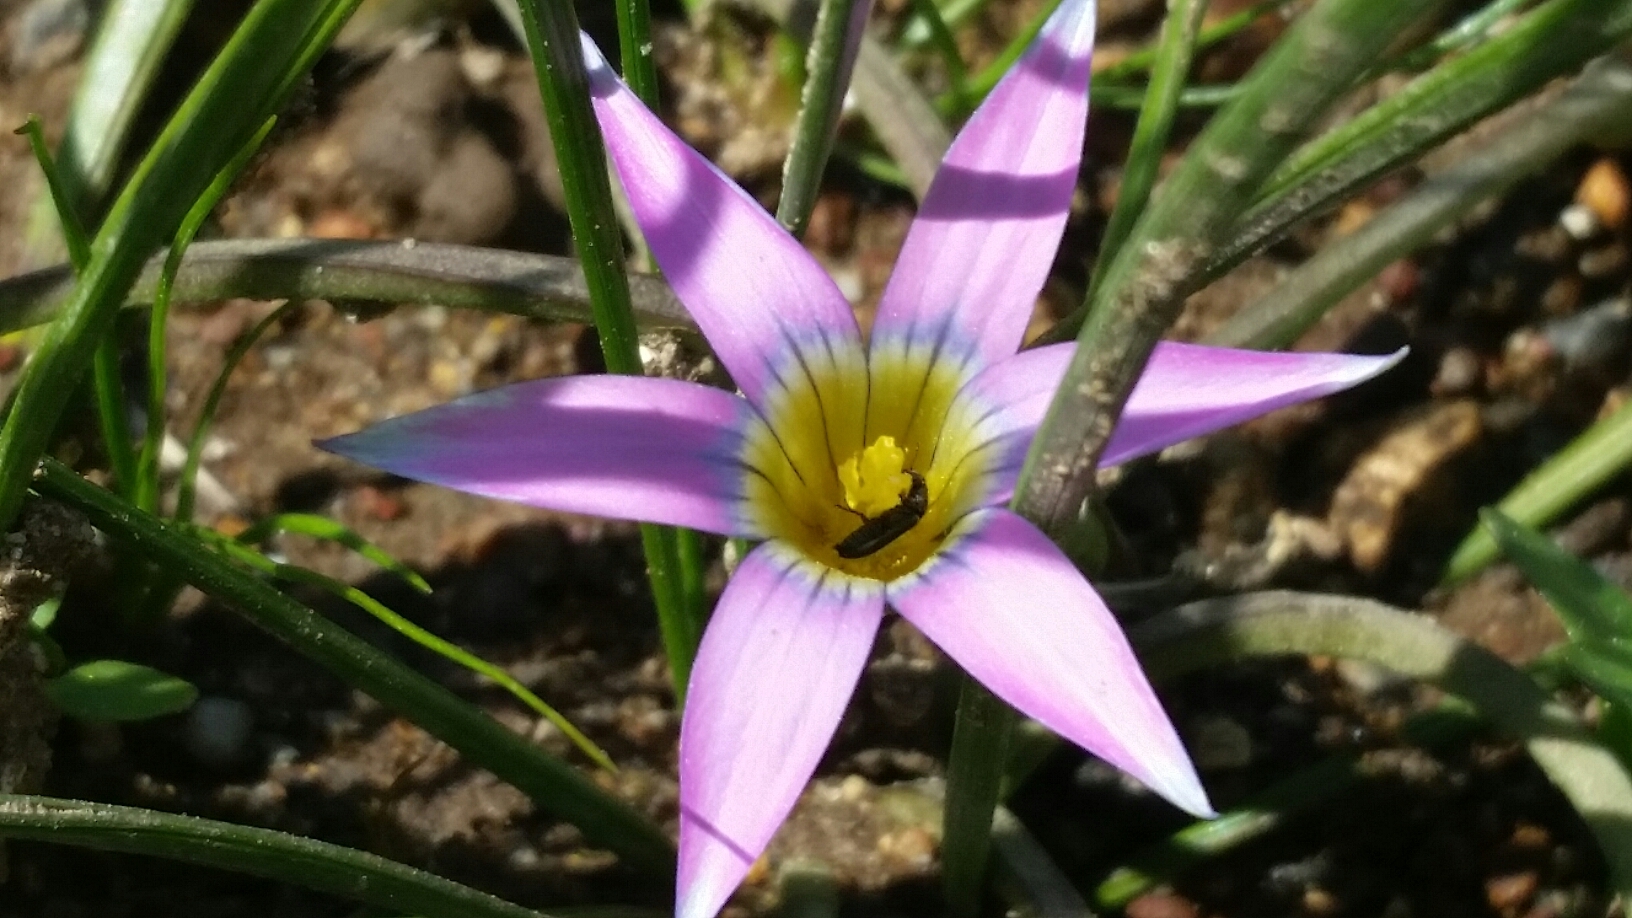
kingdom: Plantae
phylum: Tracheophyta
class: Liliopsida
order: Asparagales
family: Iridaceae
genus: Romulea
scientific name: Romulea rosea
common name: Oniongrass
